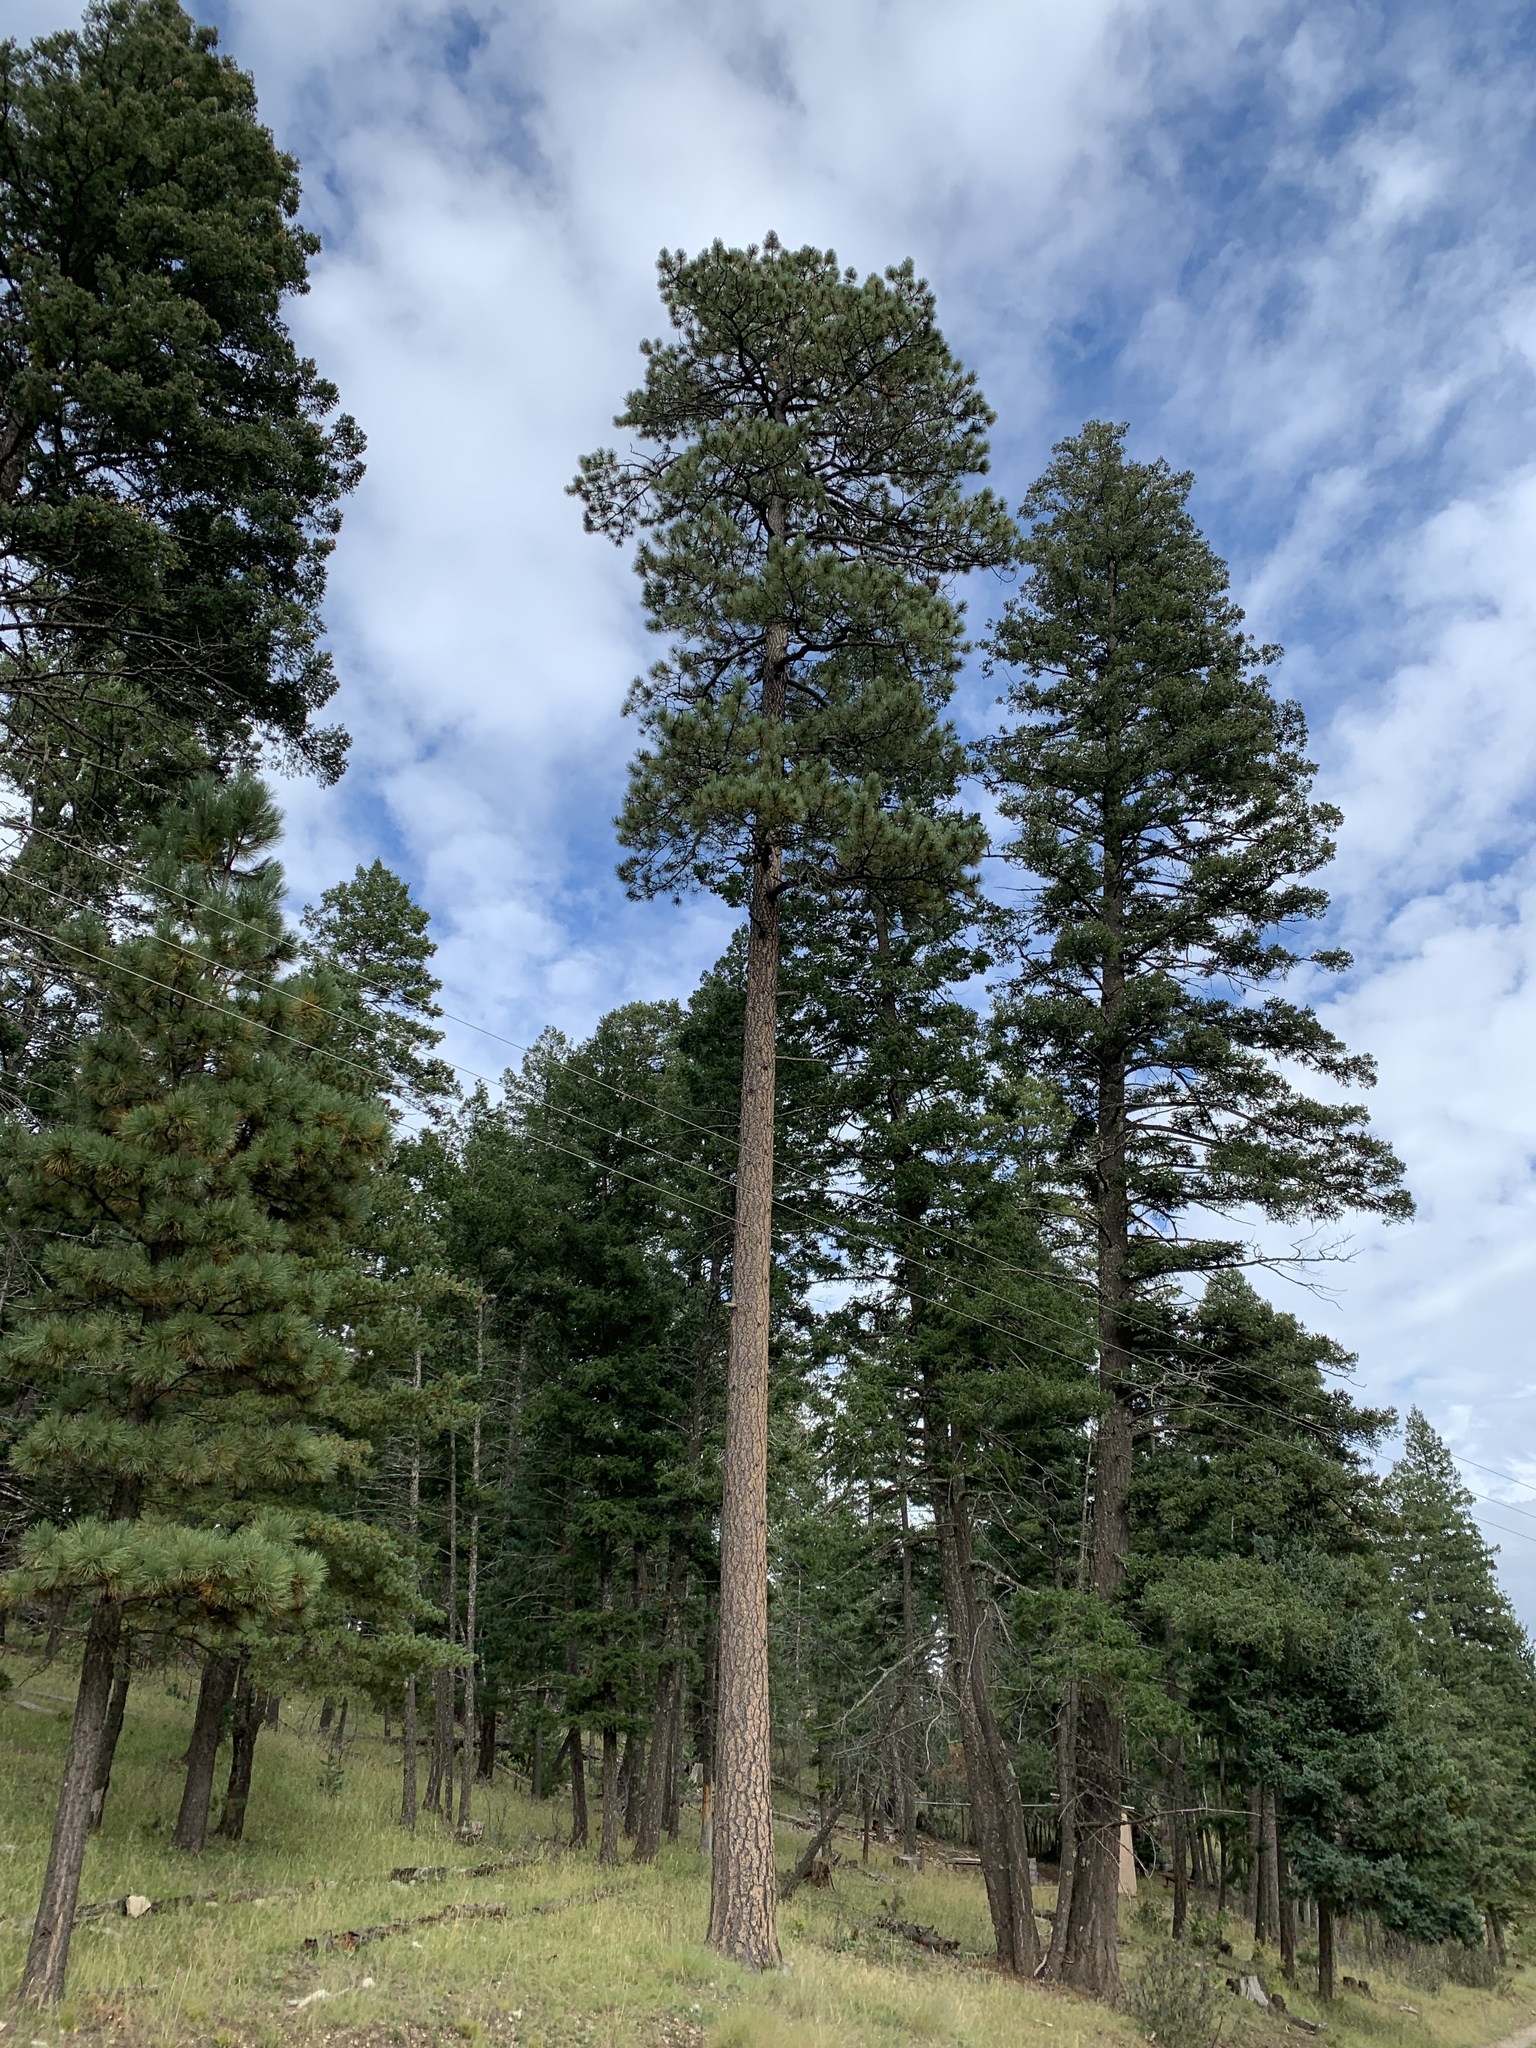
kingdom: Plantae
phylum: Tracheophyta
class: Pinopsida
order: Pinales
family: Pinaceae
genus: Pinus
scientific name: Pinus ponderosa
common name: Western yellow-pine
